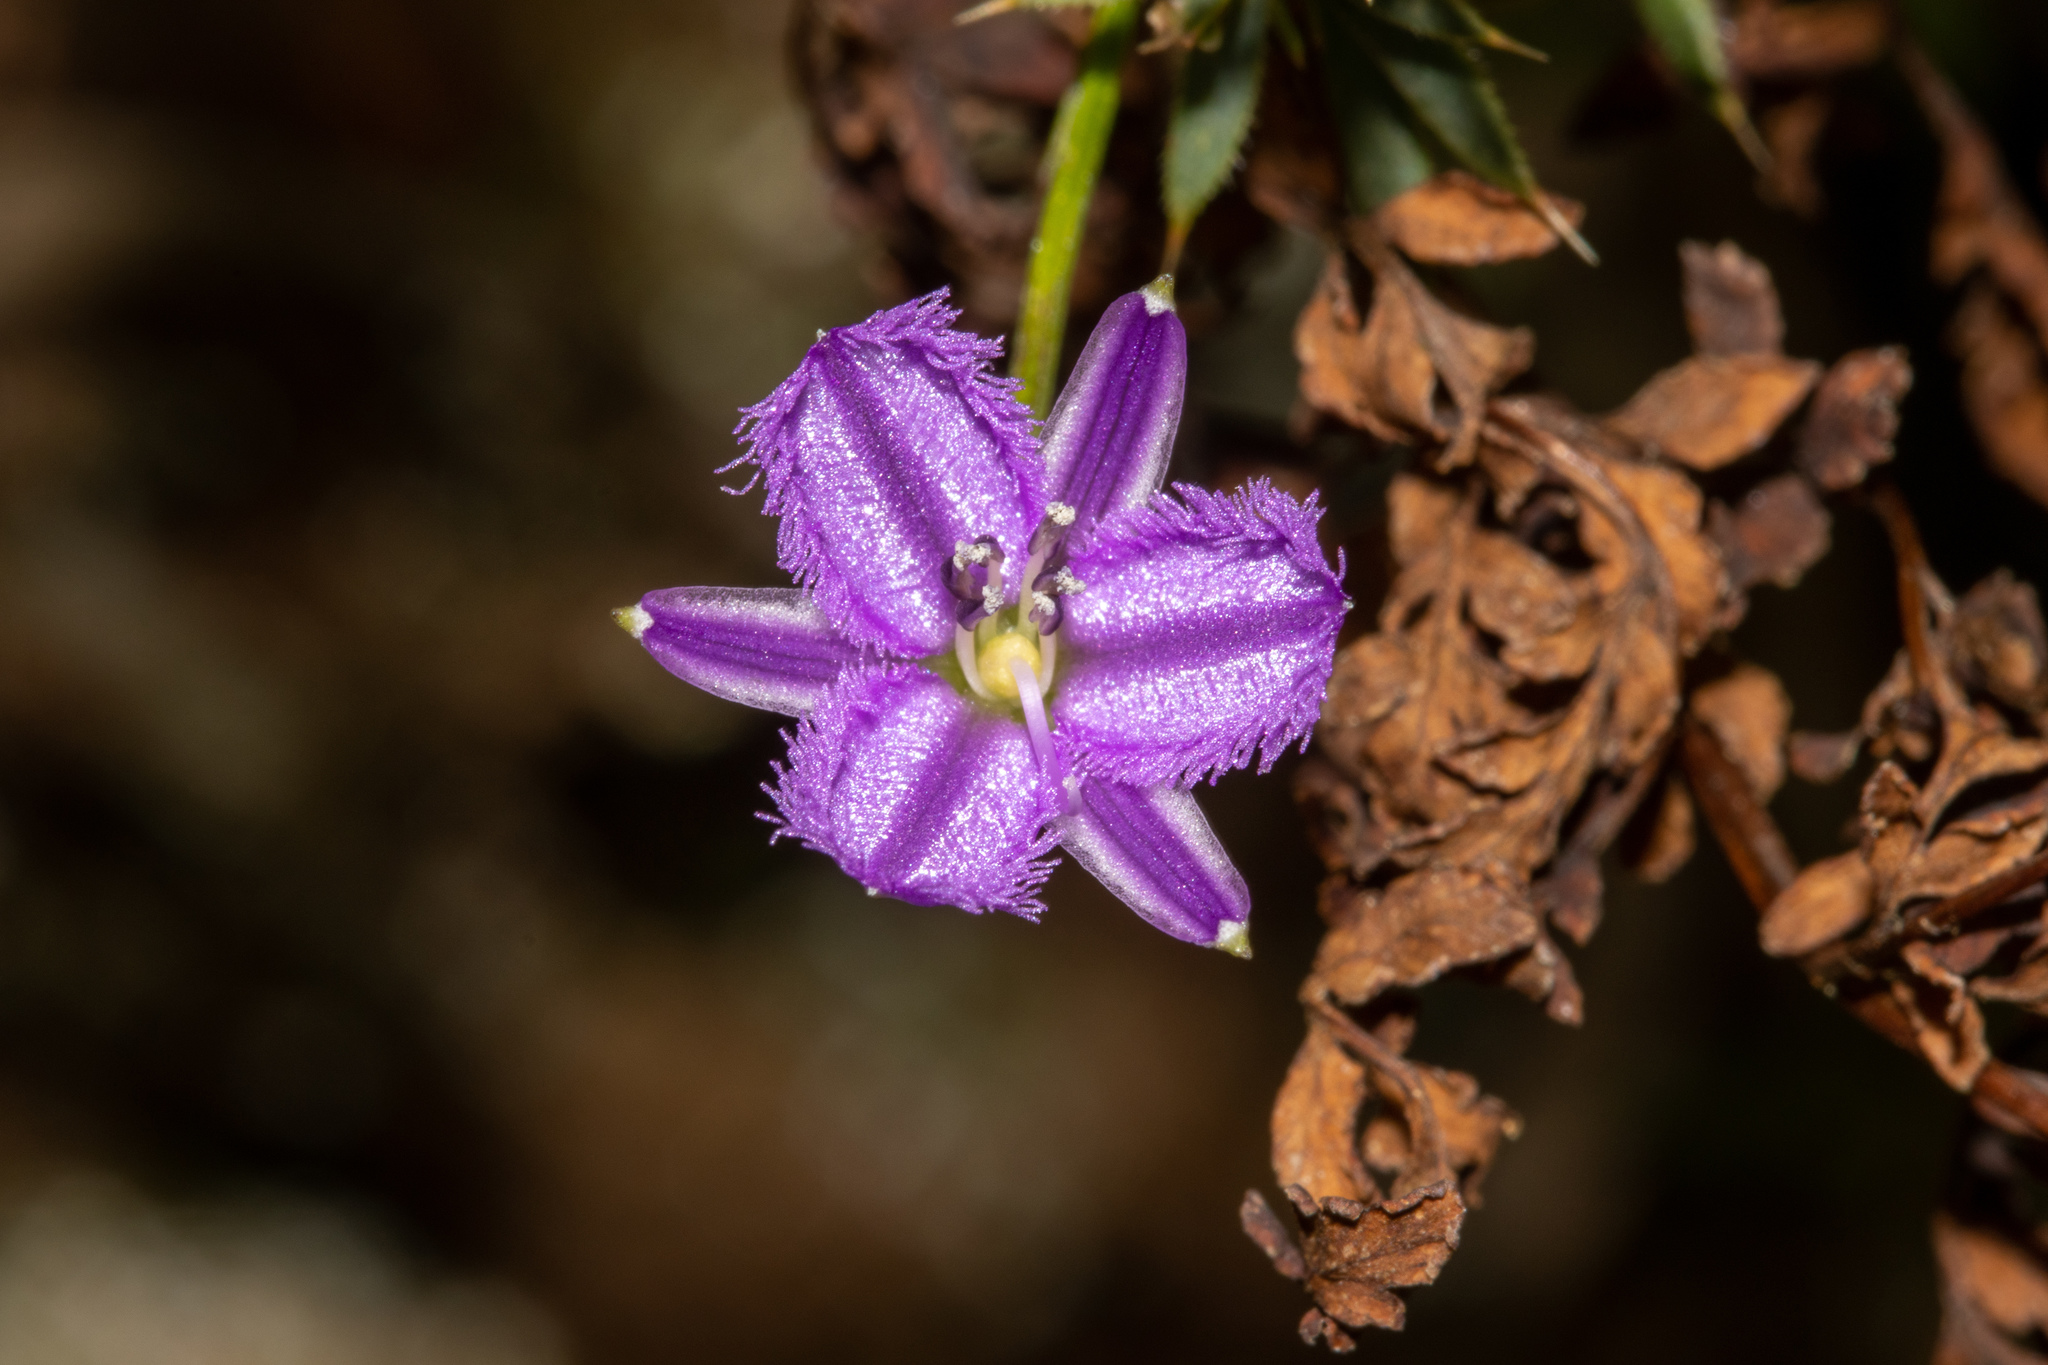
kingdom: Plantae
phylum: Tracheophyta
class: Liliopsida
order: Asparagales
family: Asparagaceae
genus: Thysanotus
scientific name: Thysanotus patersonii
